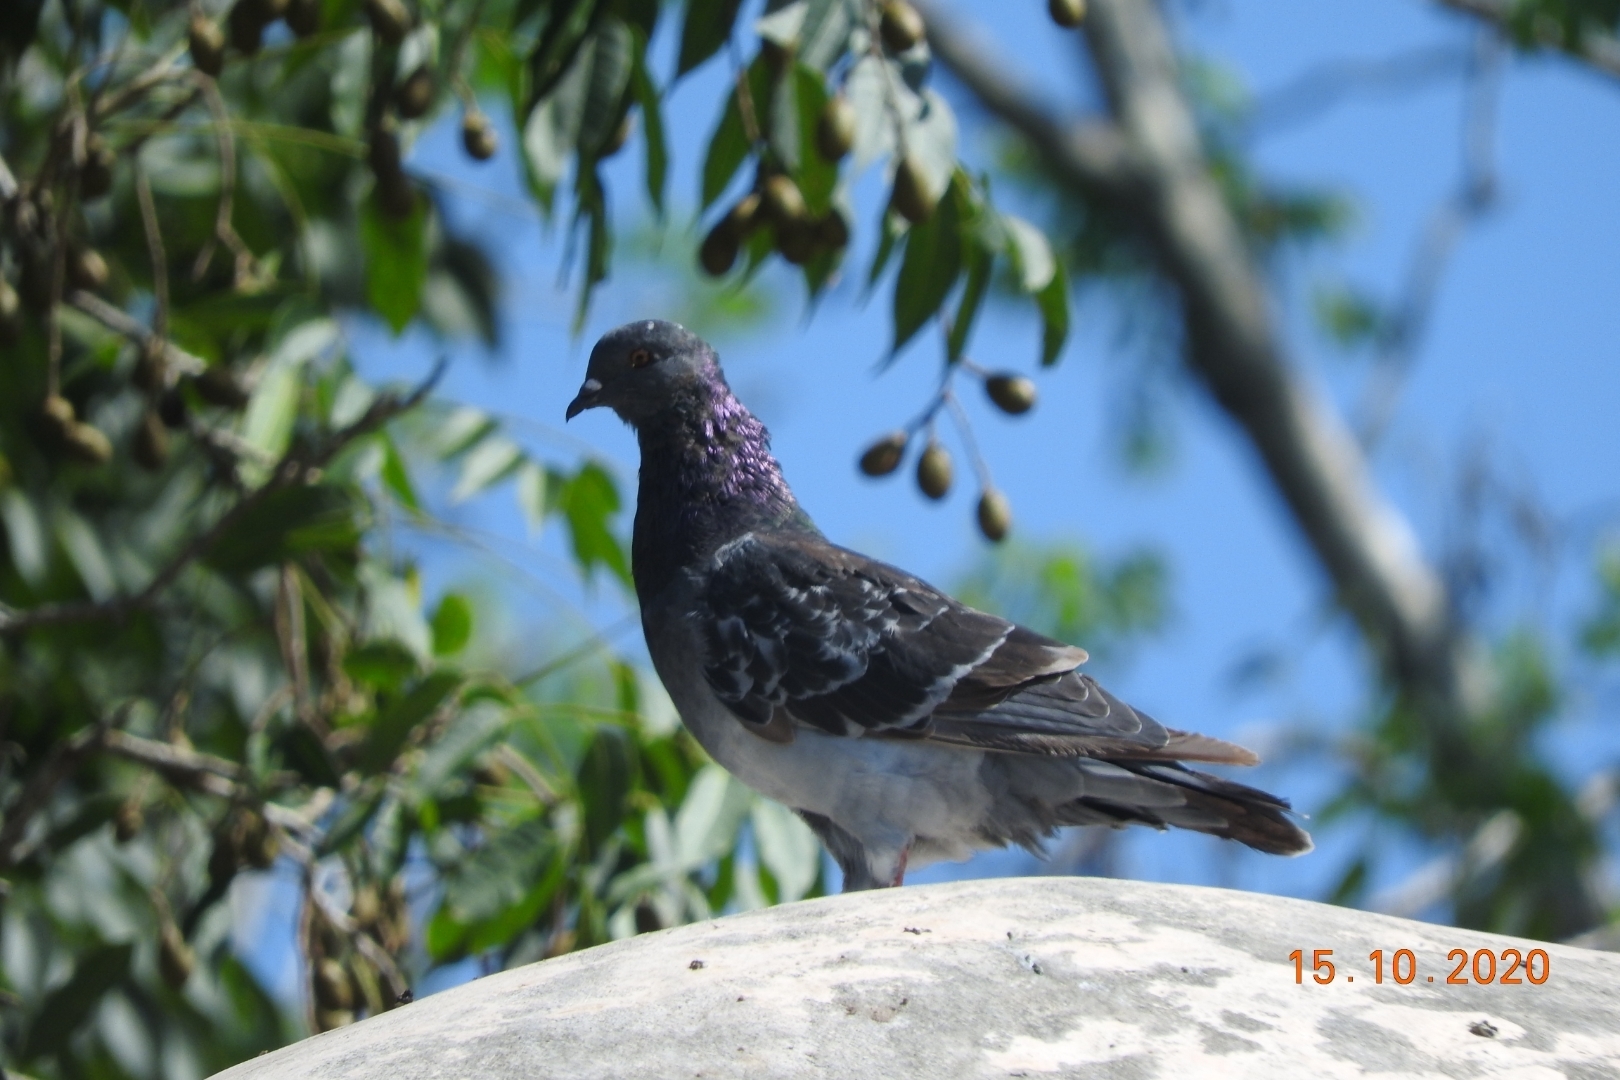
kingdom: Animalia
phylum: Chordata
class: Aves
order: Columbiformes
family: Columbidae
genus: Columba
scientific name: Columba livia
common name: Rock pigeon
